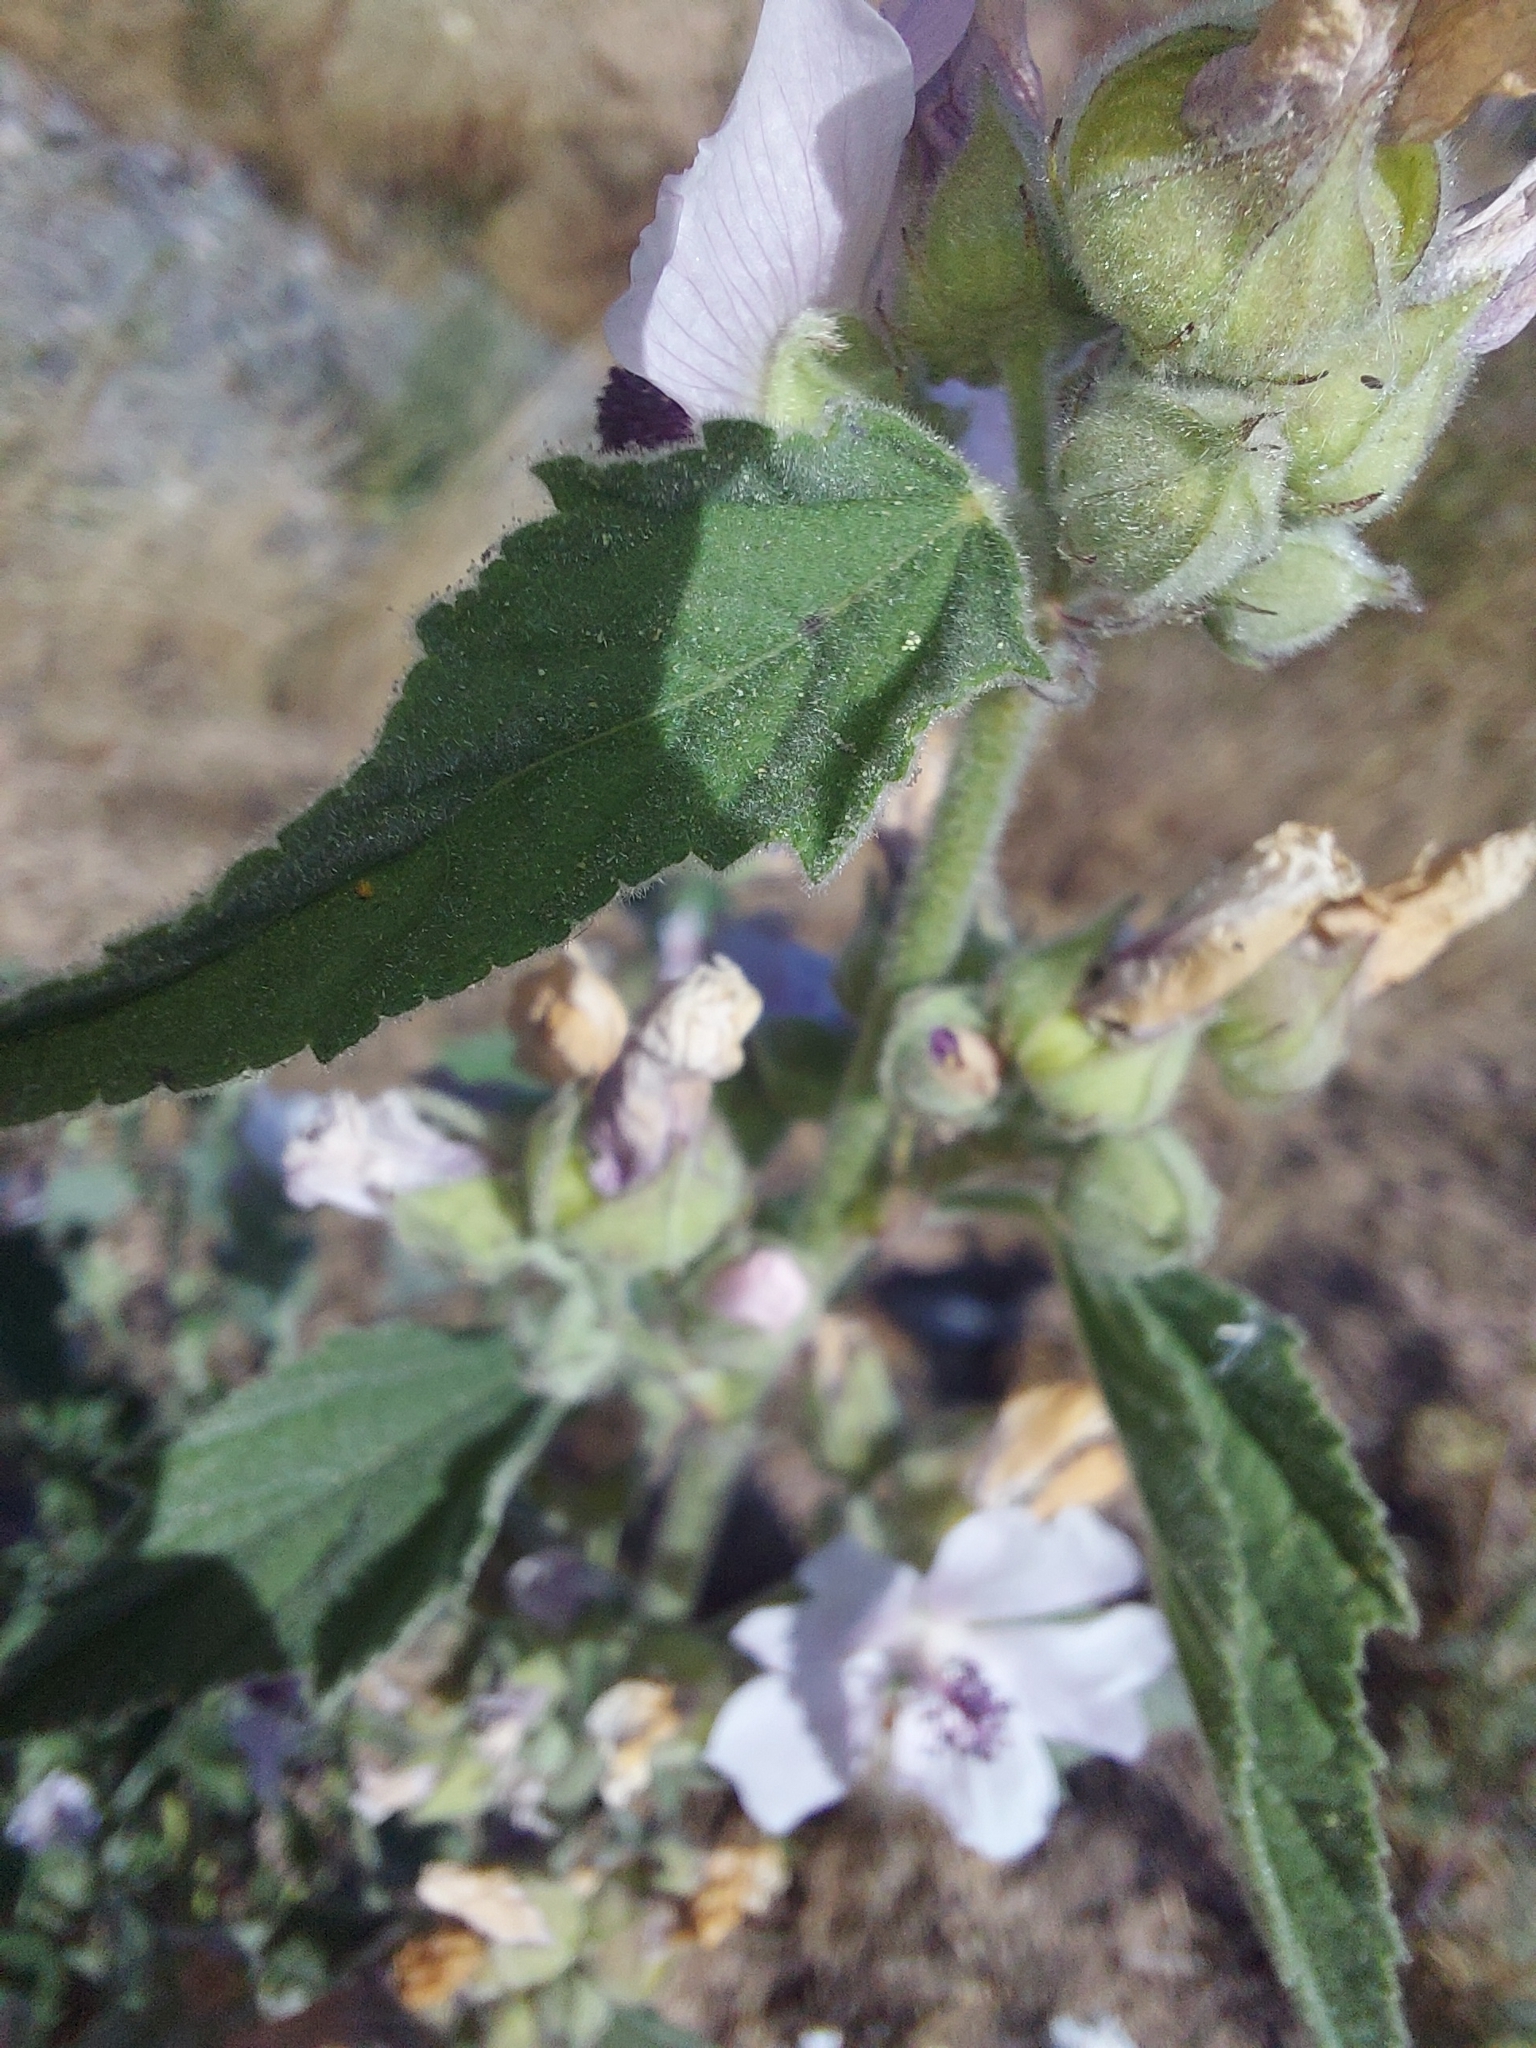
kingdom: Plantae
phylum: Tracheophyta
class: Magnoliopsida
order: Malvales
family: Malvaceae
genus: Althaea
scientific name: Althaea officinalis
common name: Marsh-mallow
